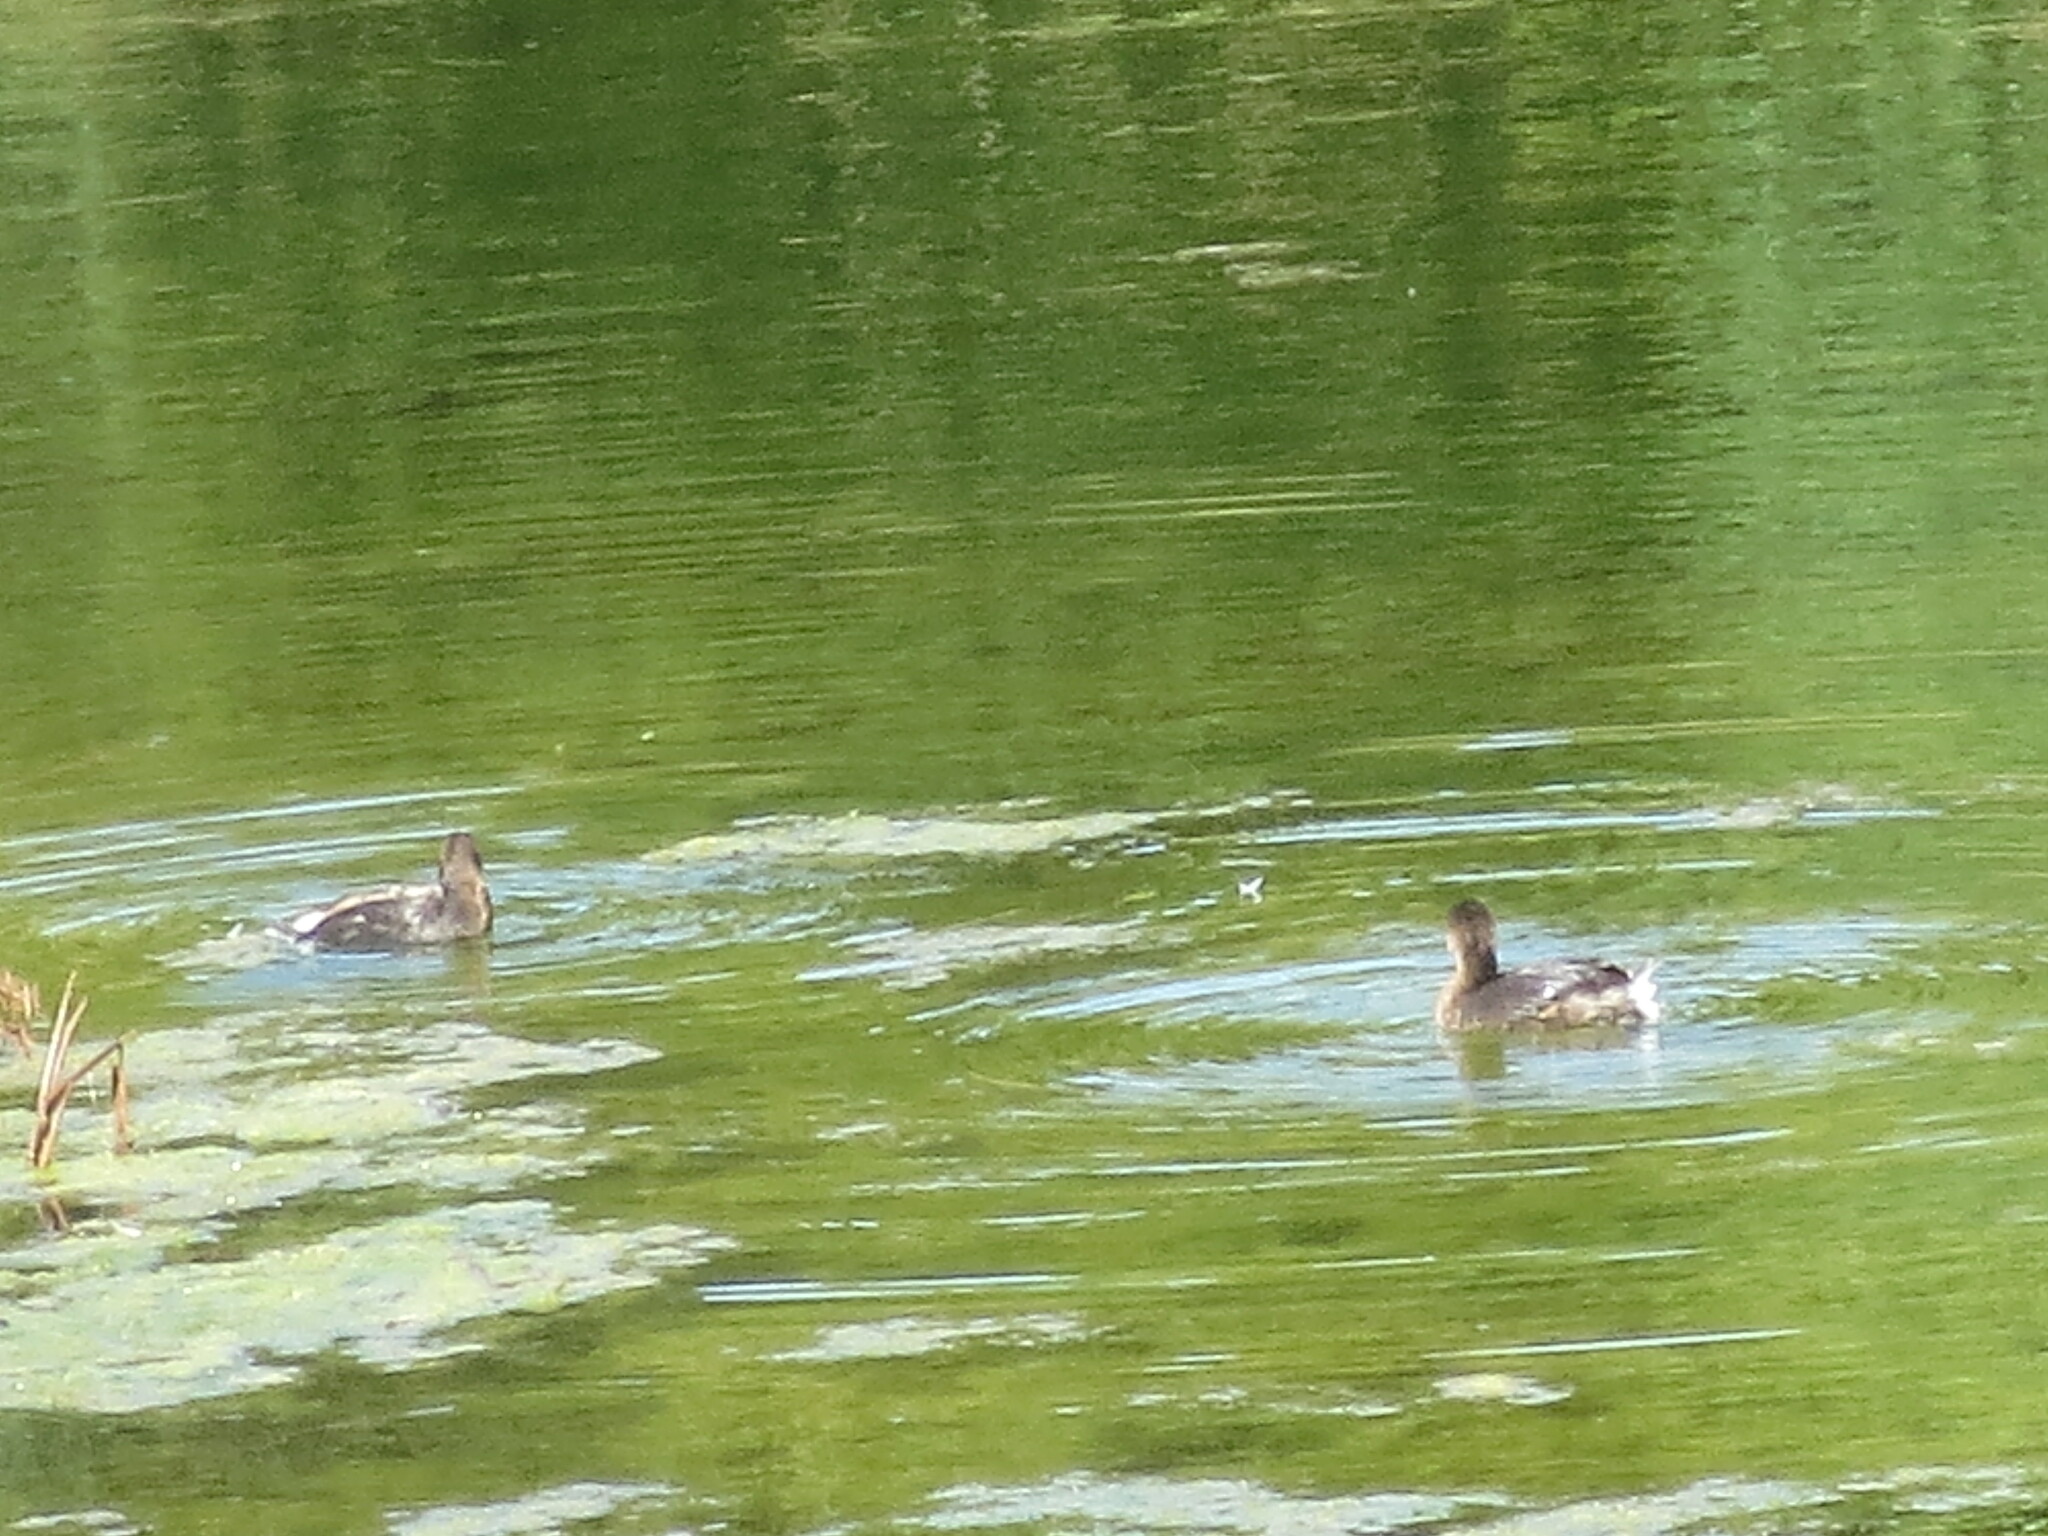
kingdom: Animalia
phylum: Chordata
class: Aves
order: Podicipediformes
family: Podicipedidae
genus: Podilymbus
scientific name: Podilymbus podiceps
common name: Pied-billed grebe
